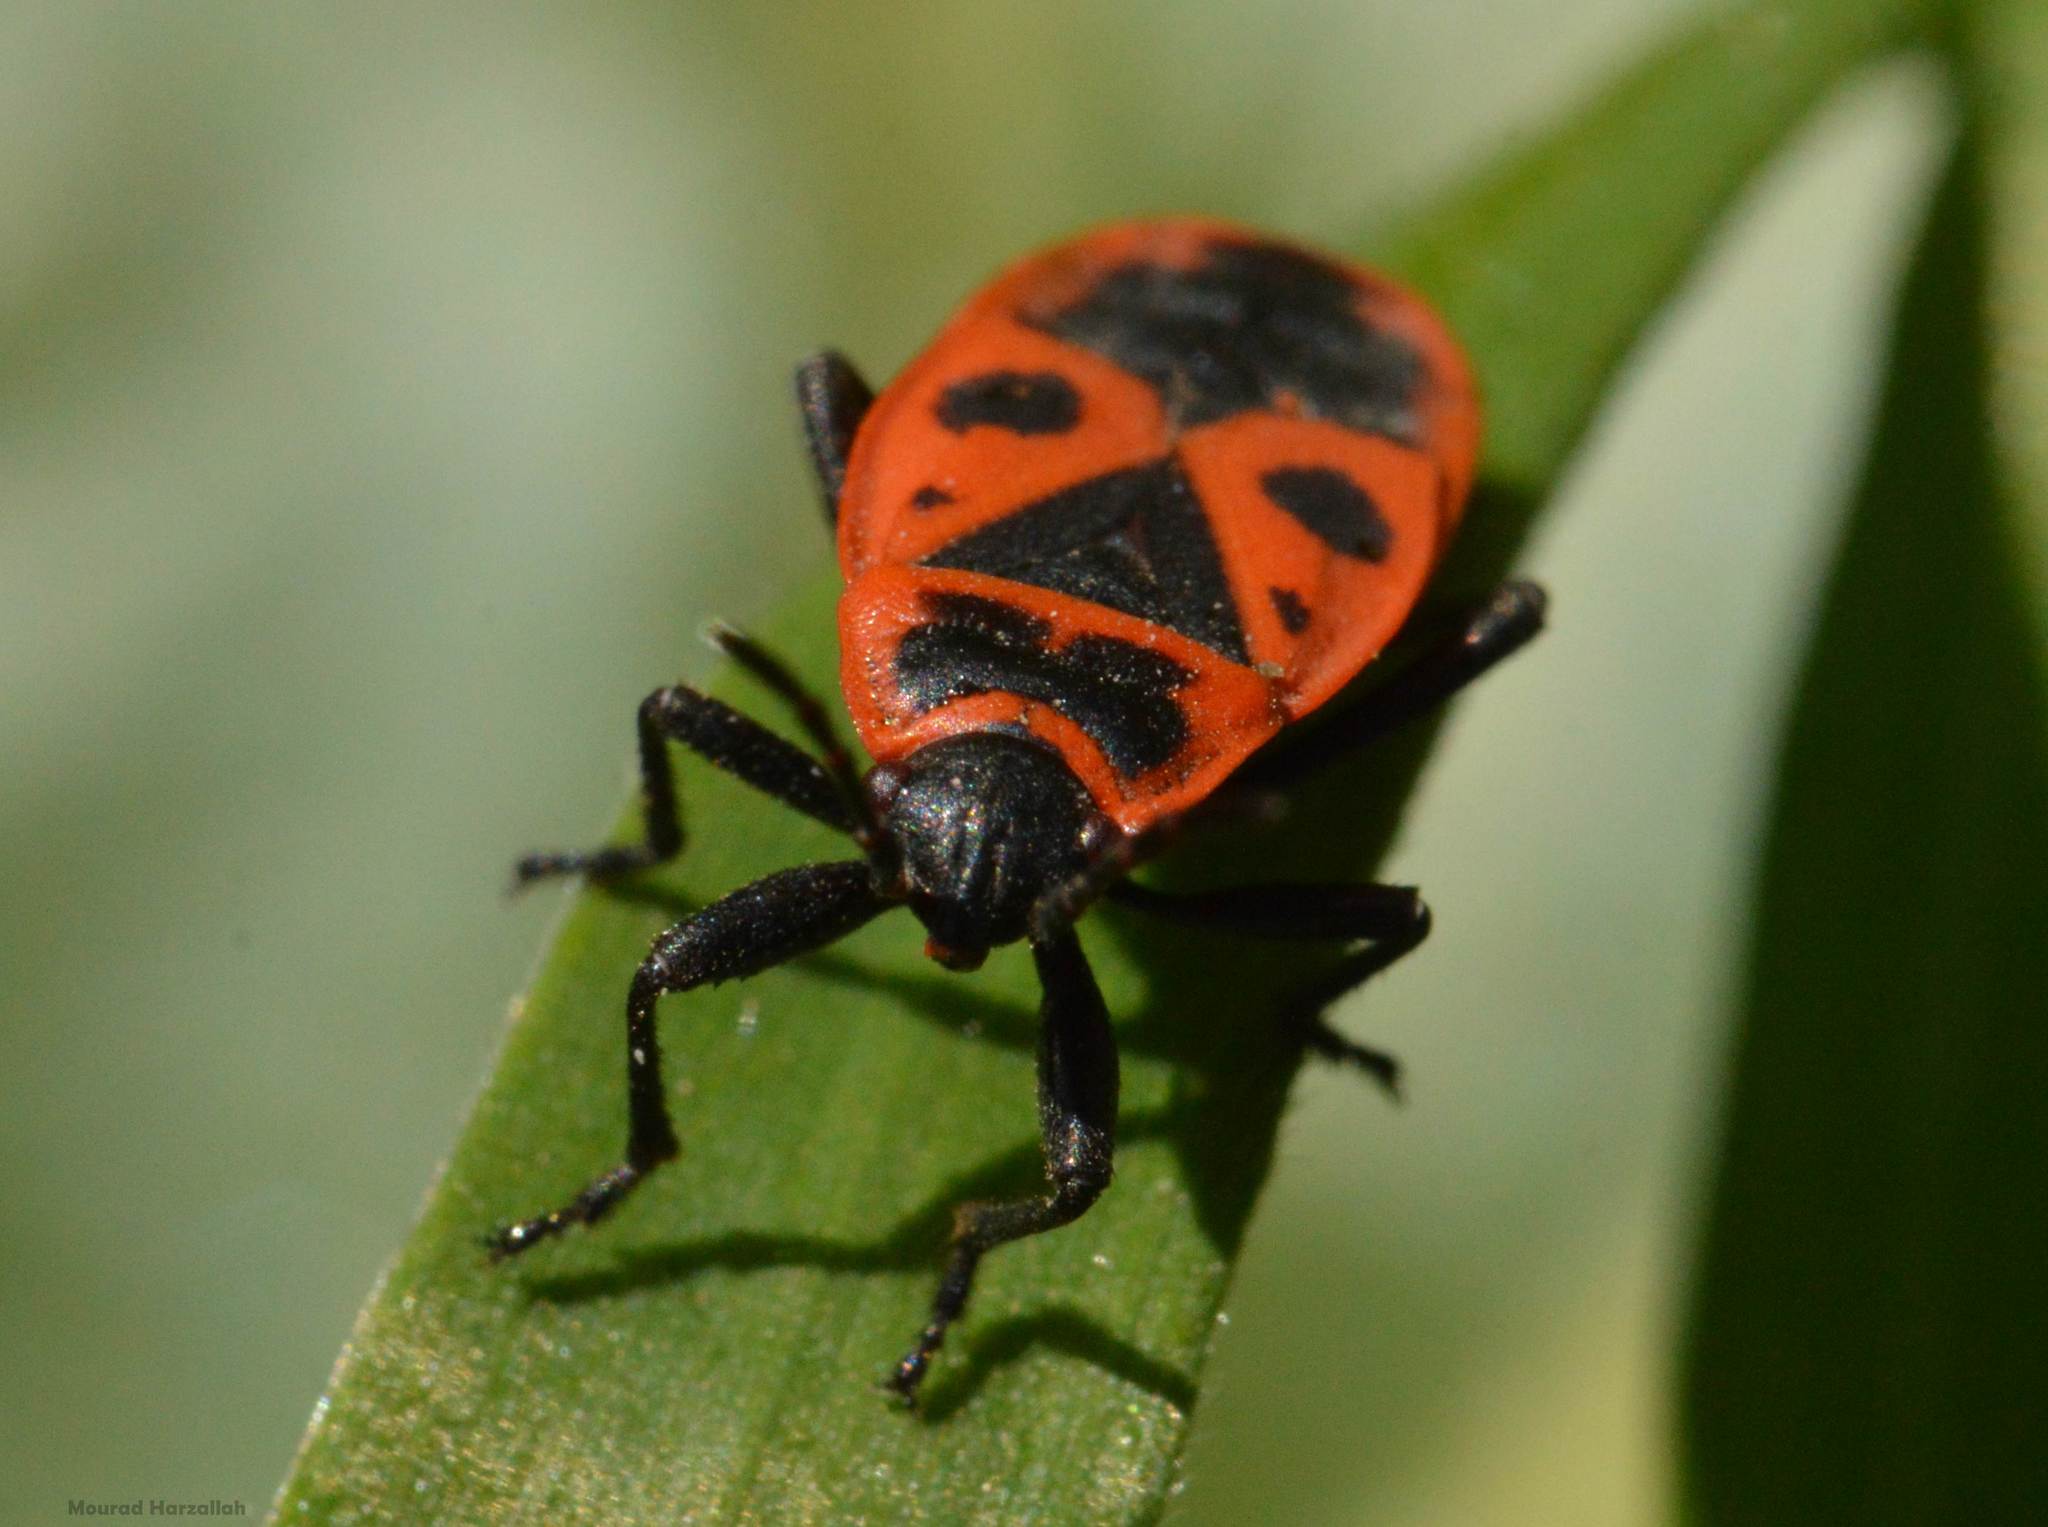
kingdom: Animalia
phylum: Arthropoda
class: Insecta
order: Hemiptera
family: Pyrrhocoridae
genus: Pyrrhocoris
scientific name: Pyrrhocoris apterus
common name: Firebug
